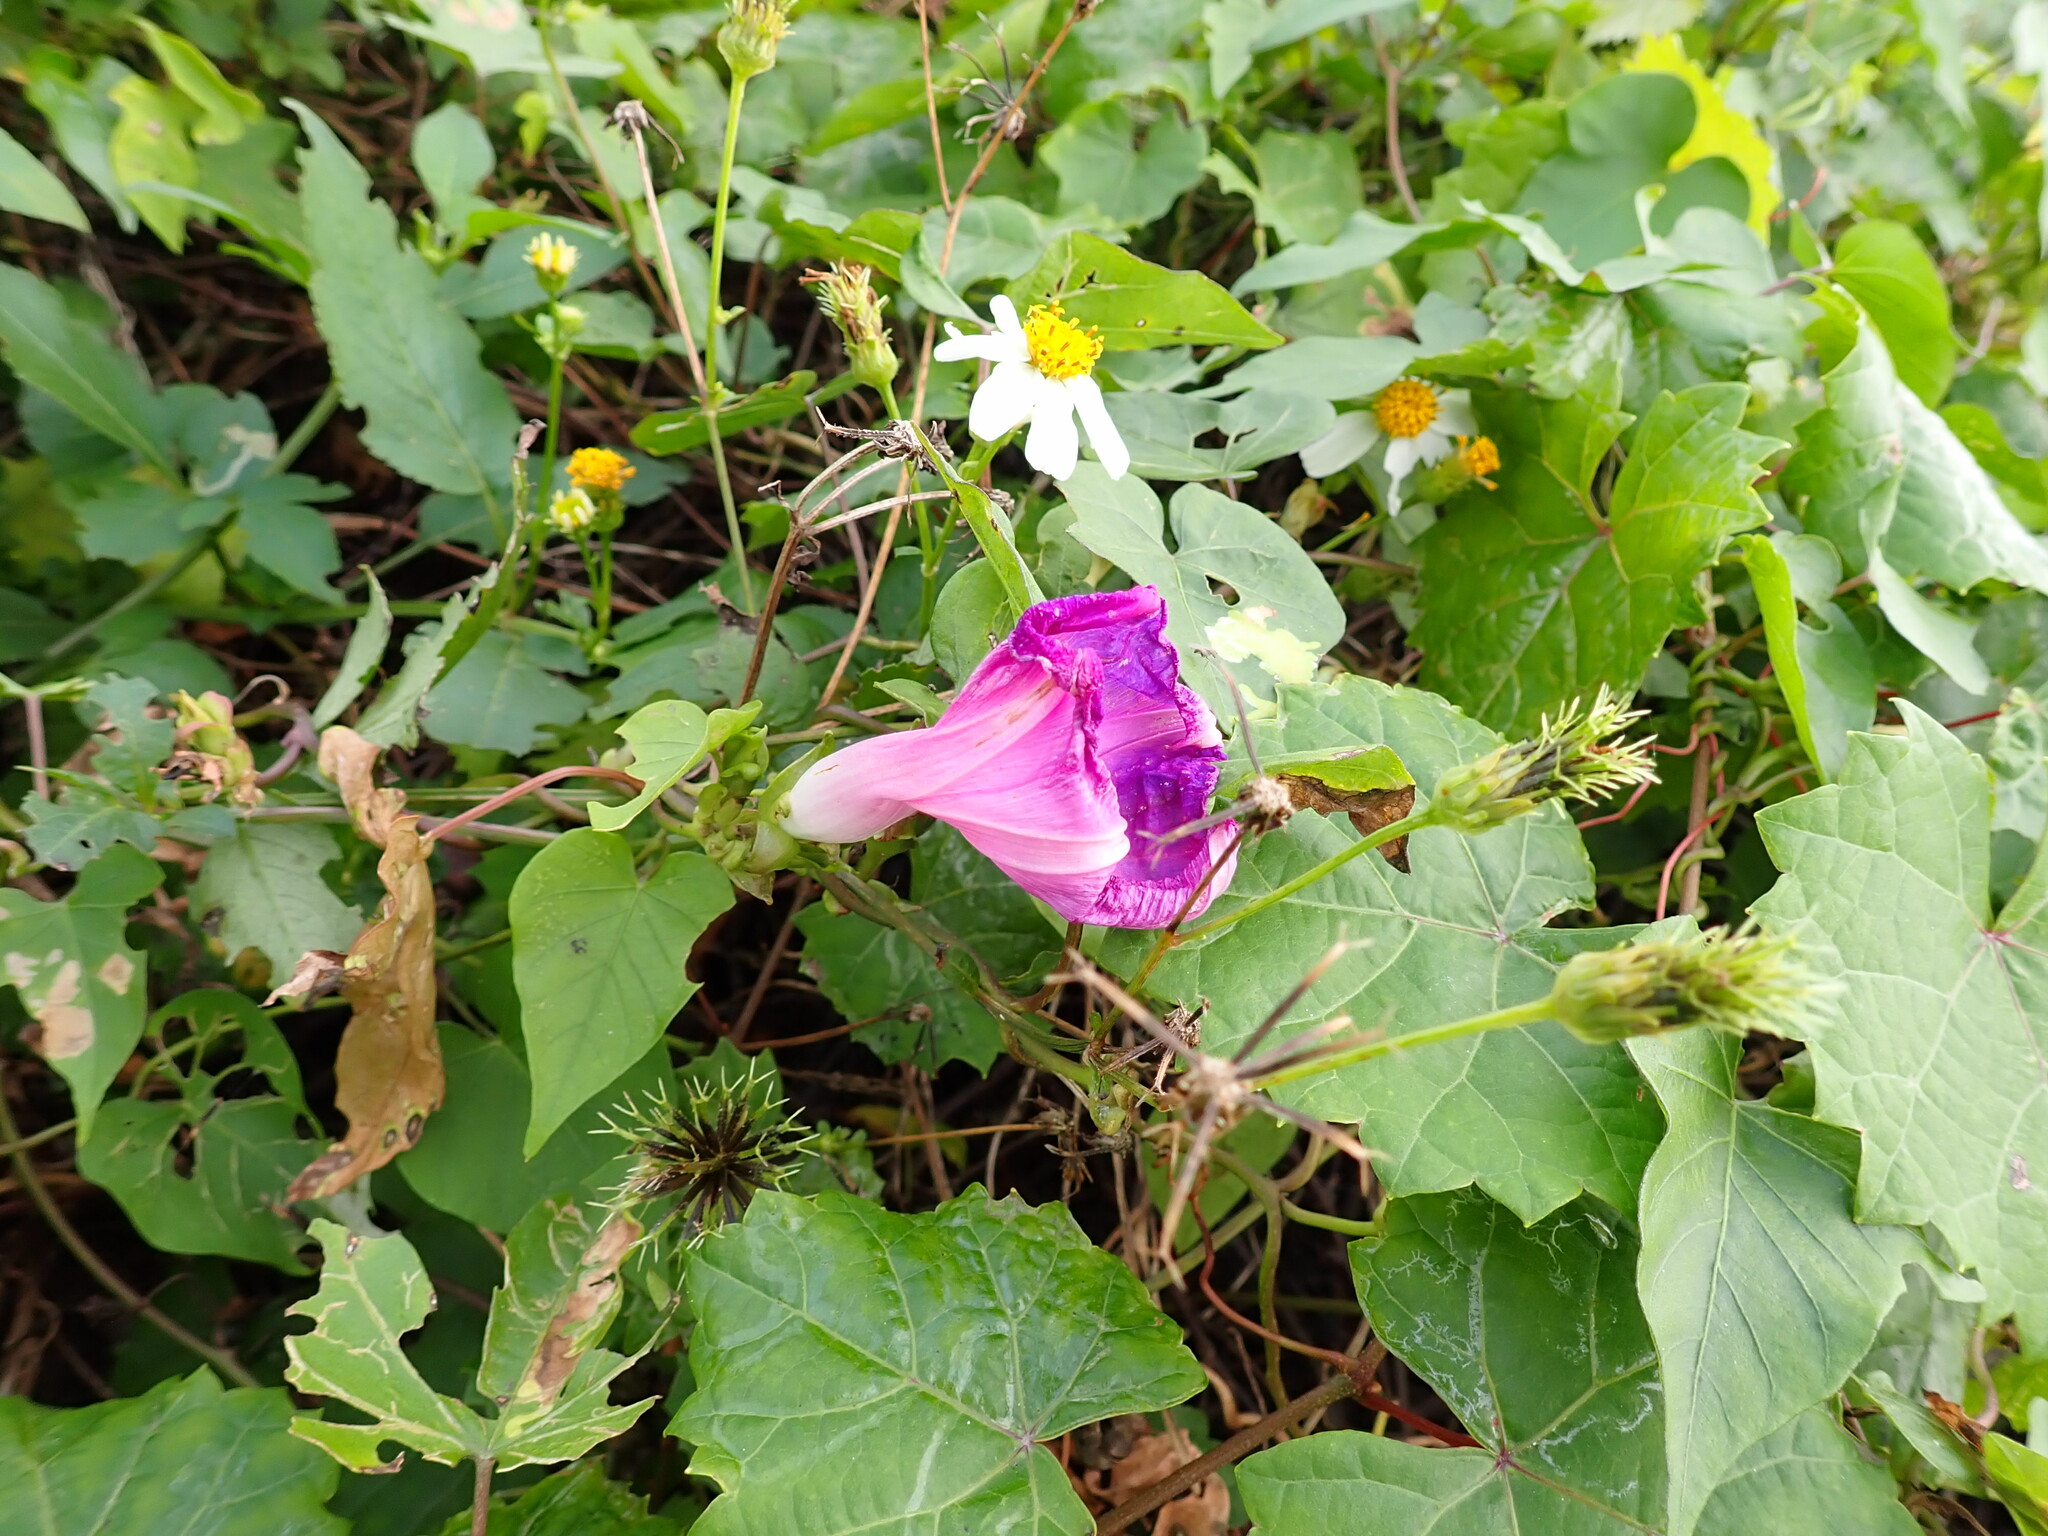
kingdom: Plantae
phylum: Tracheophyta
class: Magnoliopsida
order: Solanales
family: Convolvulaceae
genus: Ipomoea
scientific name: Ipomoea indica
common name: Blue dawnflower
